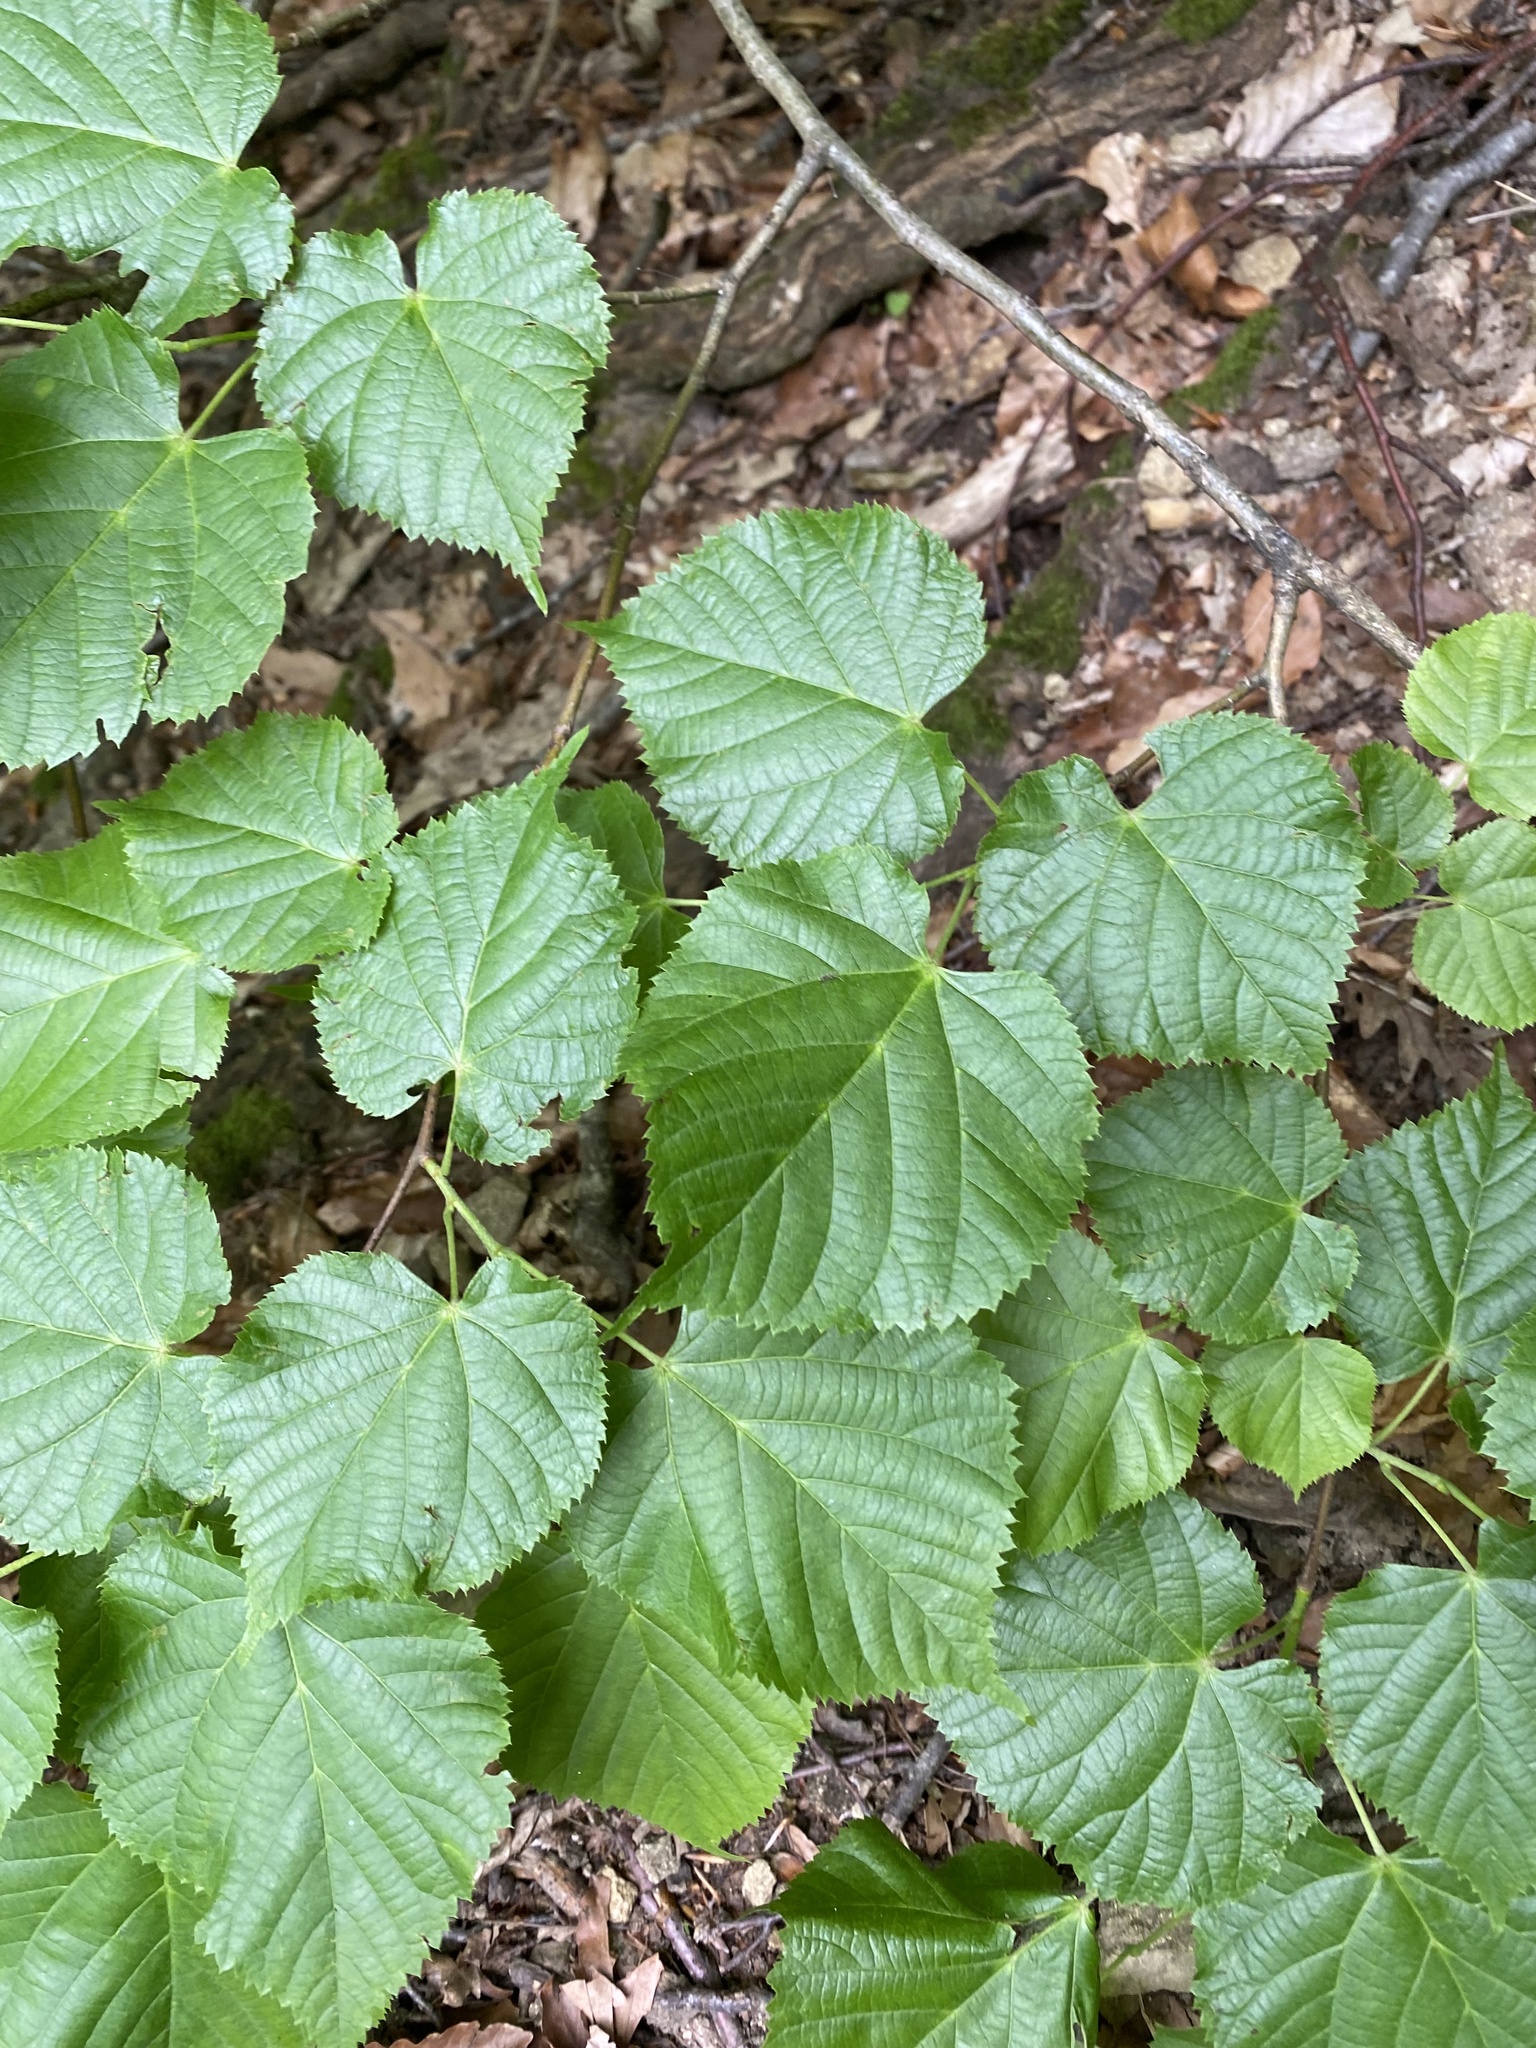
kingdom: Plantae
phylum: Tracheophyta
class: Magnoliopsida
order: Malvales
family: Malvaceae
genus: Tilia
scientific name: Tilia
